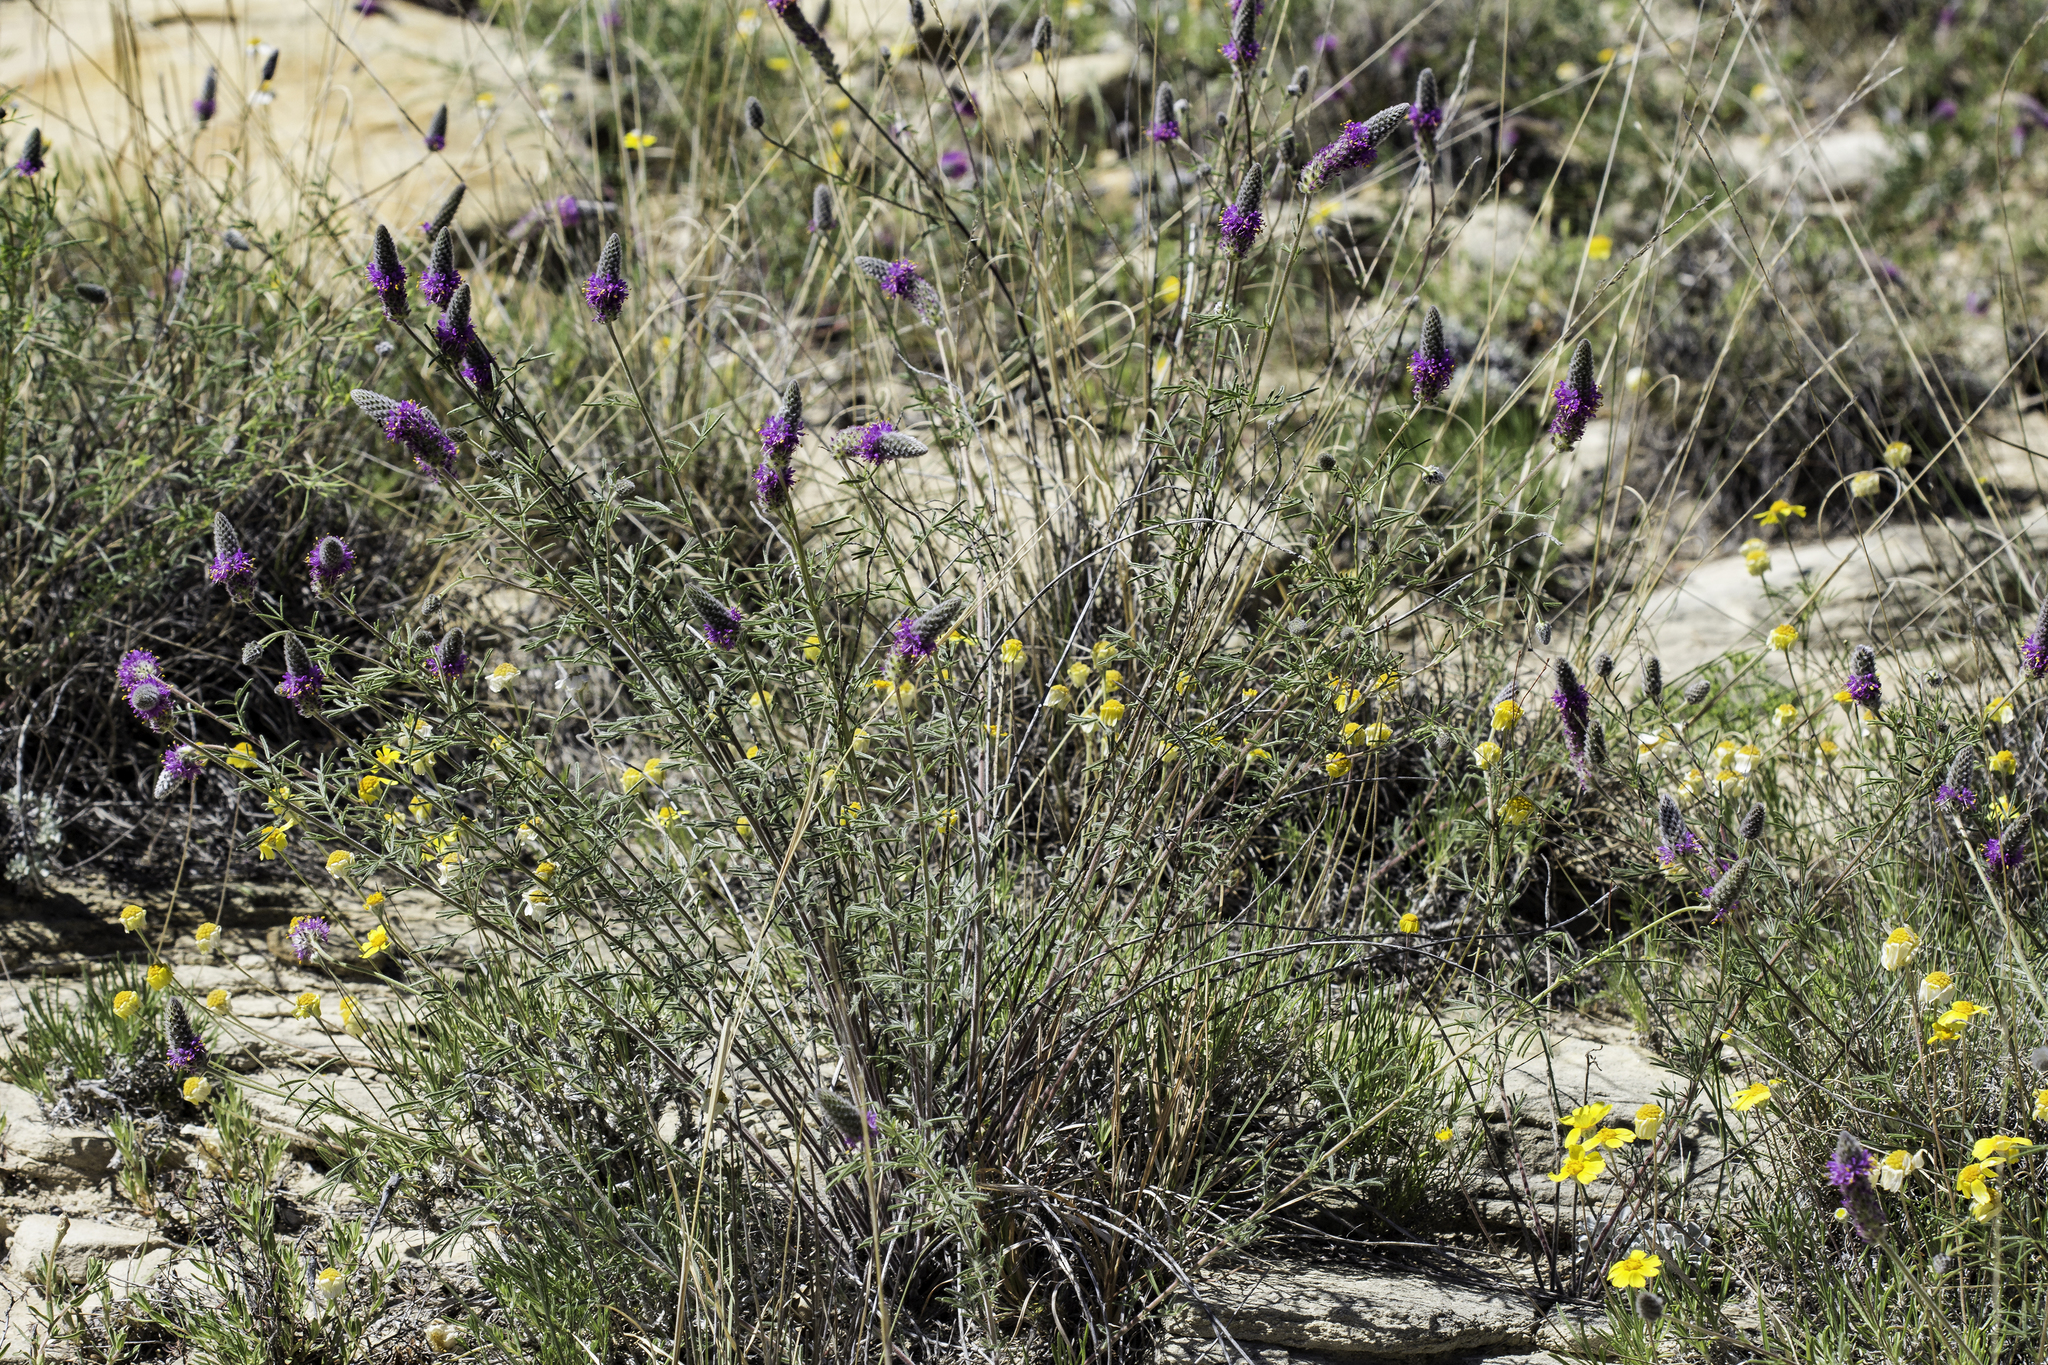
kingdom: Plantae
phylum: Tracheophyta
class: Magnoliopsida
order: Fabales
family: Fabaceae
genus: Dalea
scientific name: Dalea purpurea
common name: Purple prairie-clover
